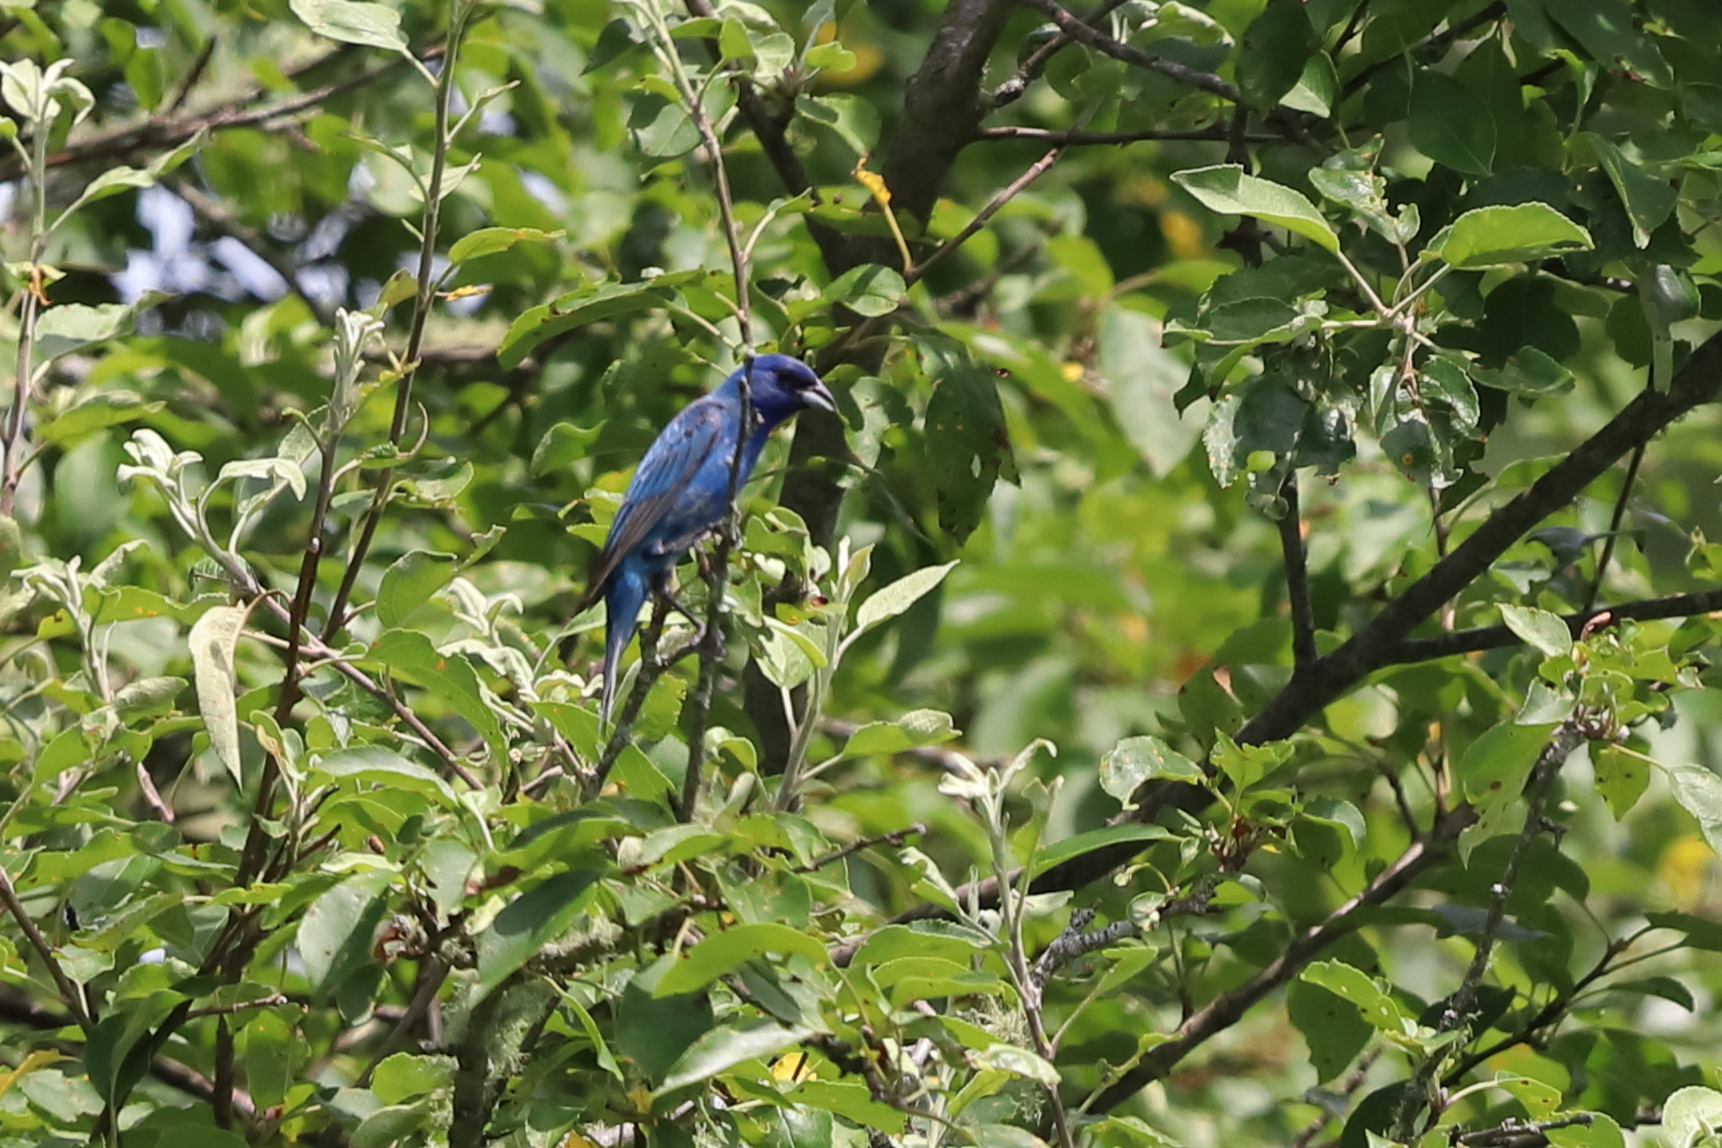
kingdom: Animalia
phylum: Chordata
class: Aves
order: Passeriformes
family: Cardinalidae
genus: Passerina
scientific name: Passerina cyanea
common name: Indigo bunting
